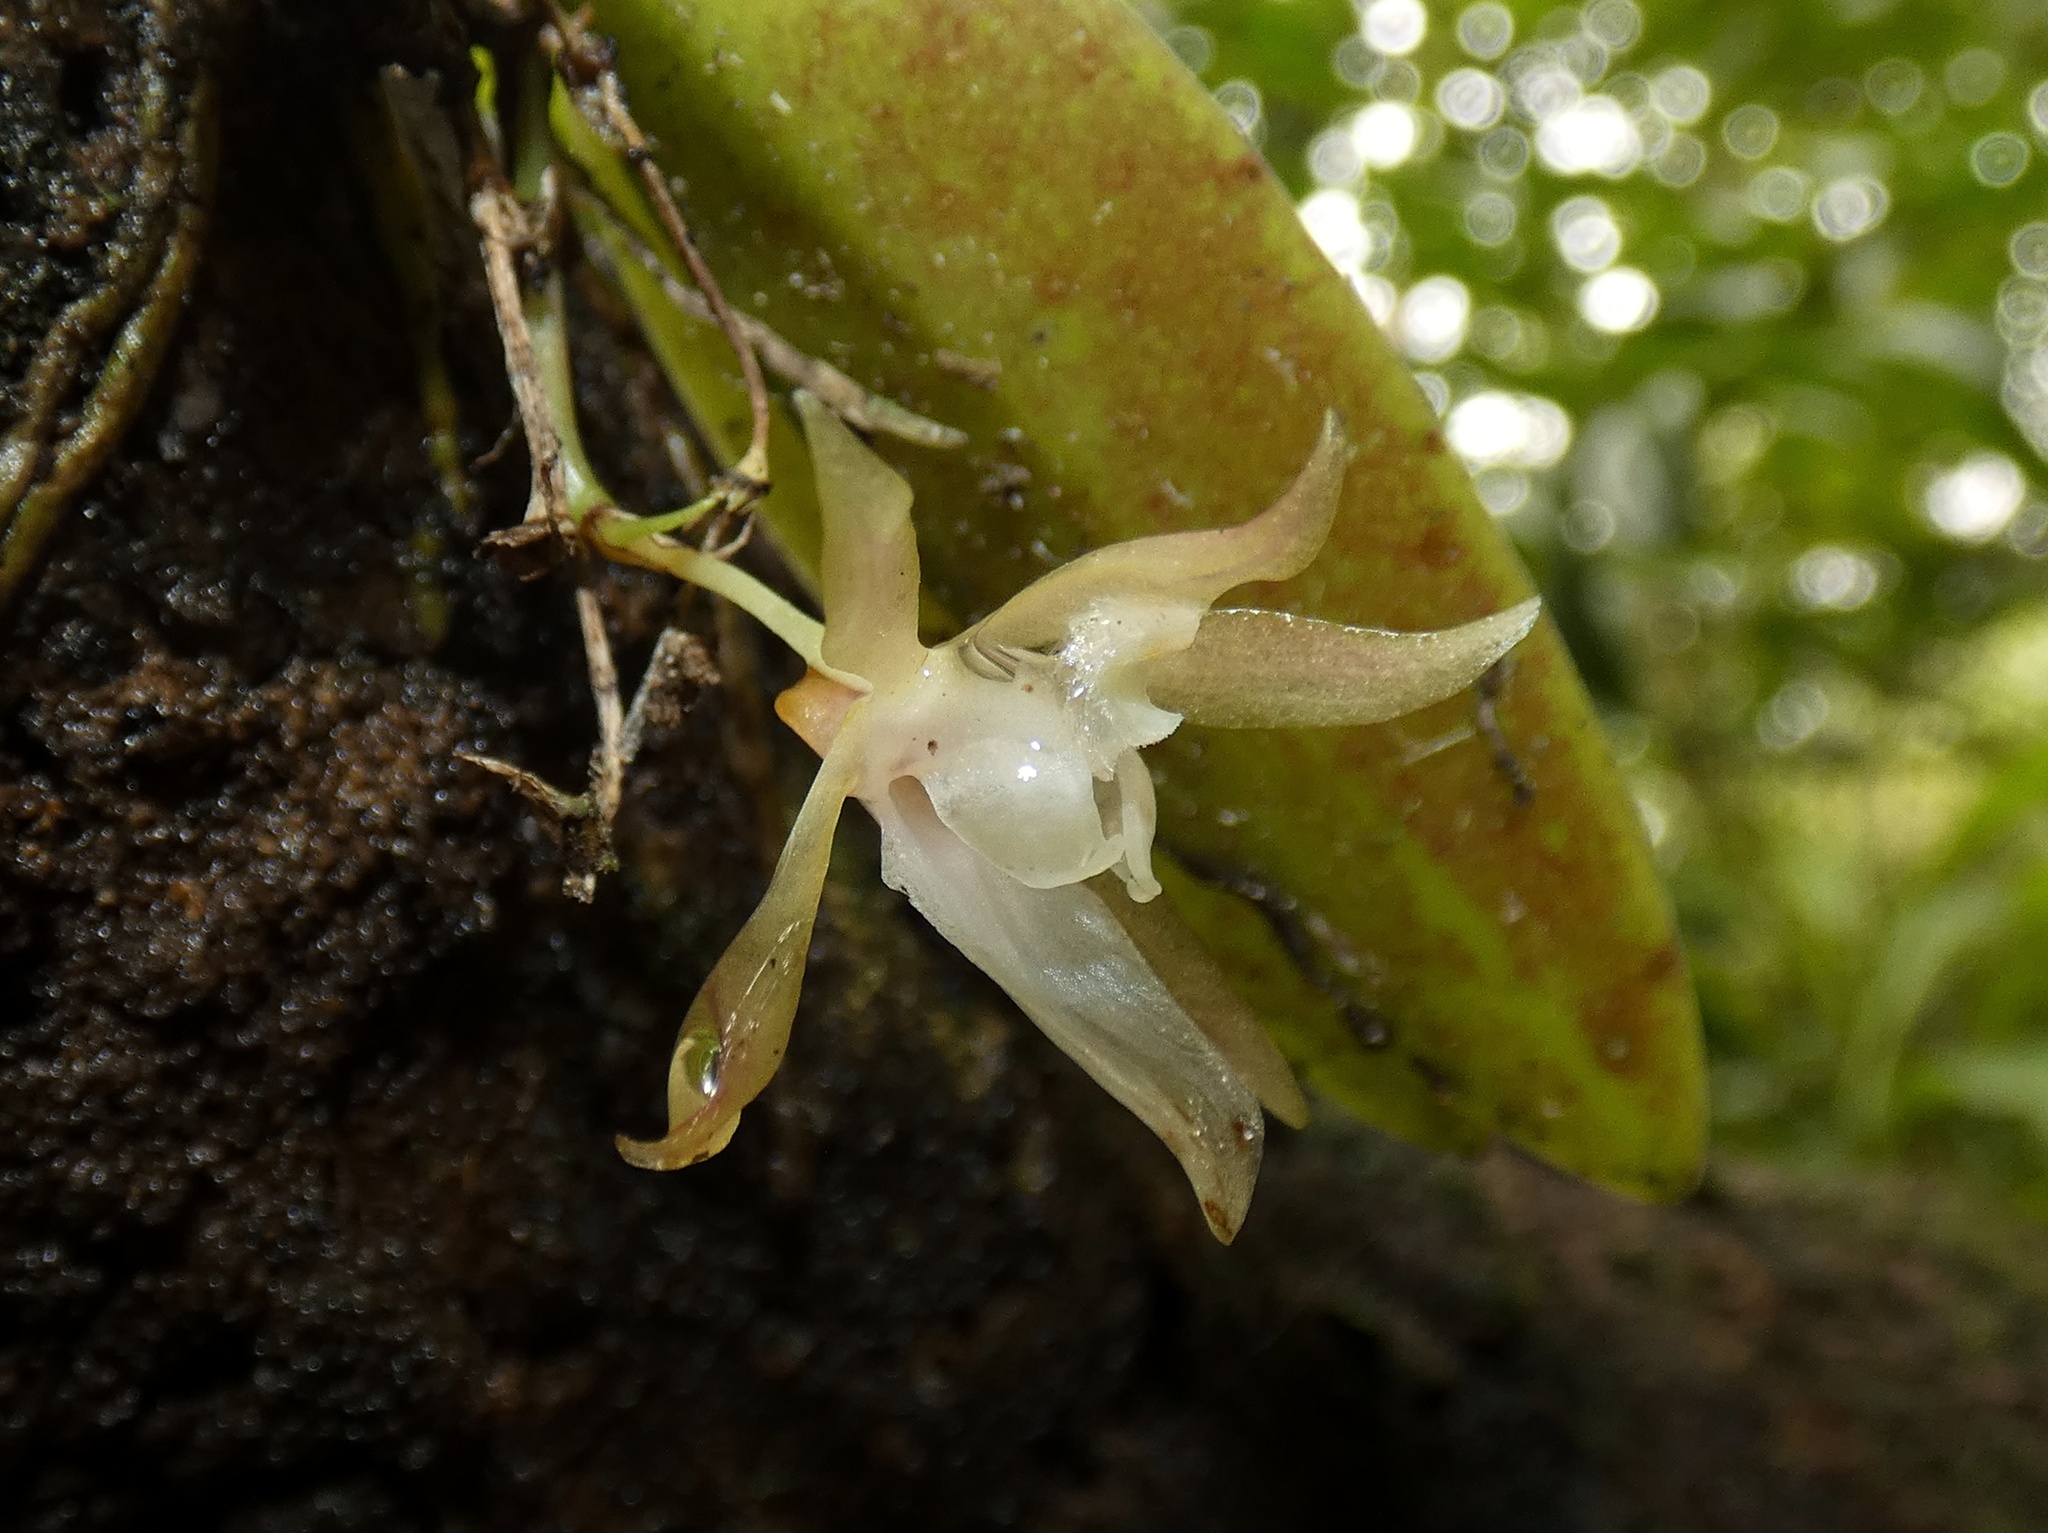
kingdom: Plantae
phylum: Tracheophyta
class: Liliopsida
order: Asparagales
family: Orchidaceae
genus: Trichocentrum
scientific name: Trichocentrum capistratum
